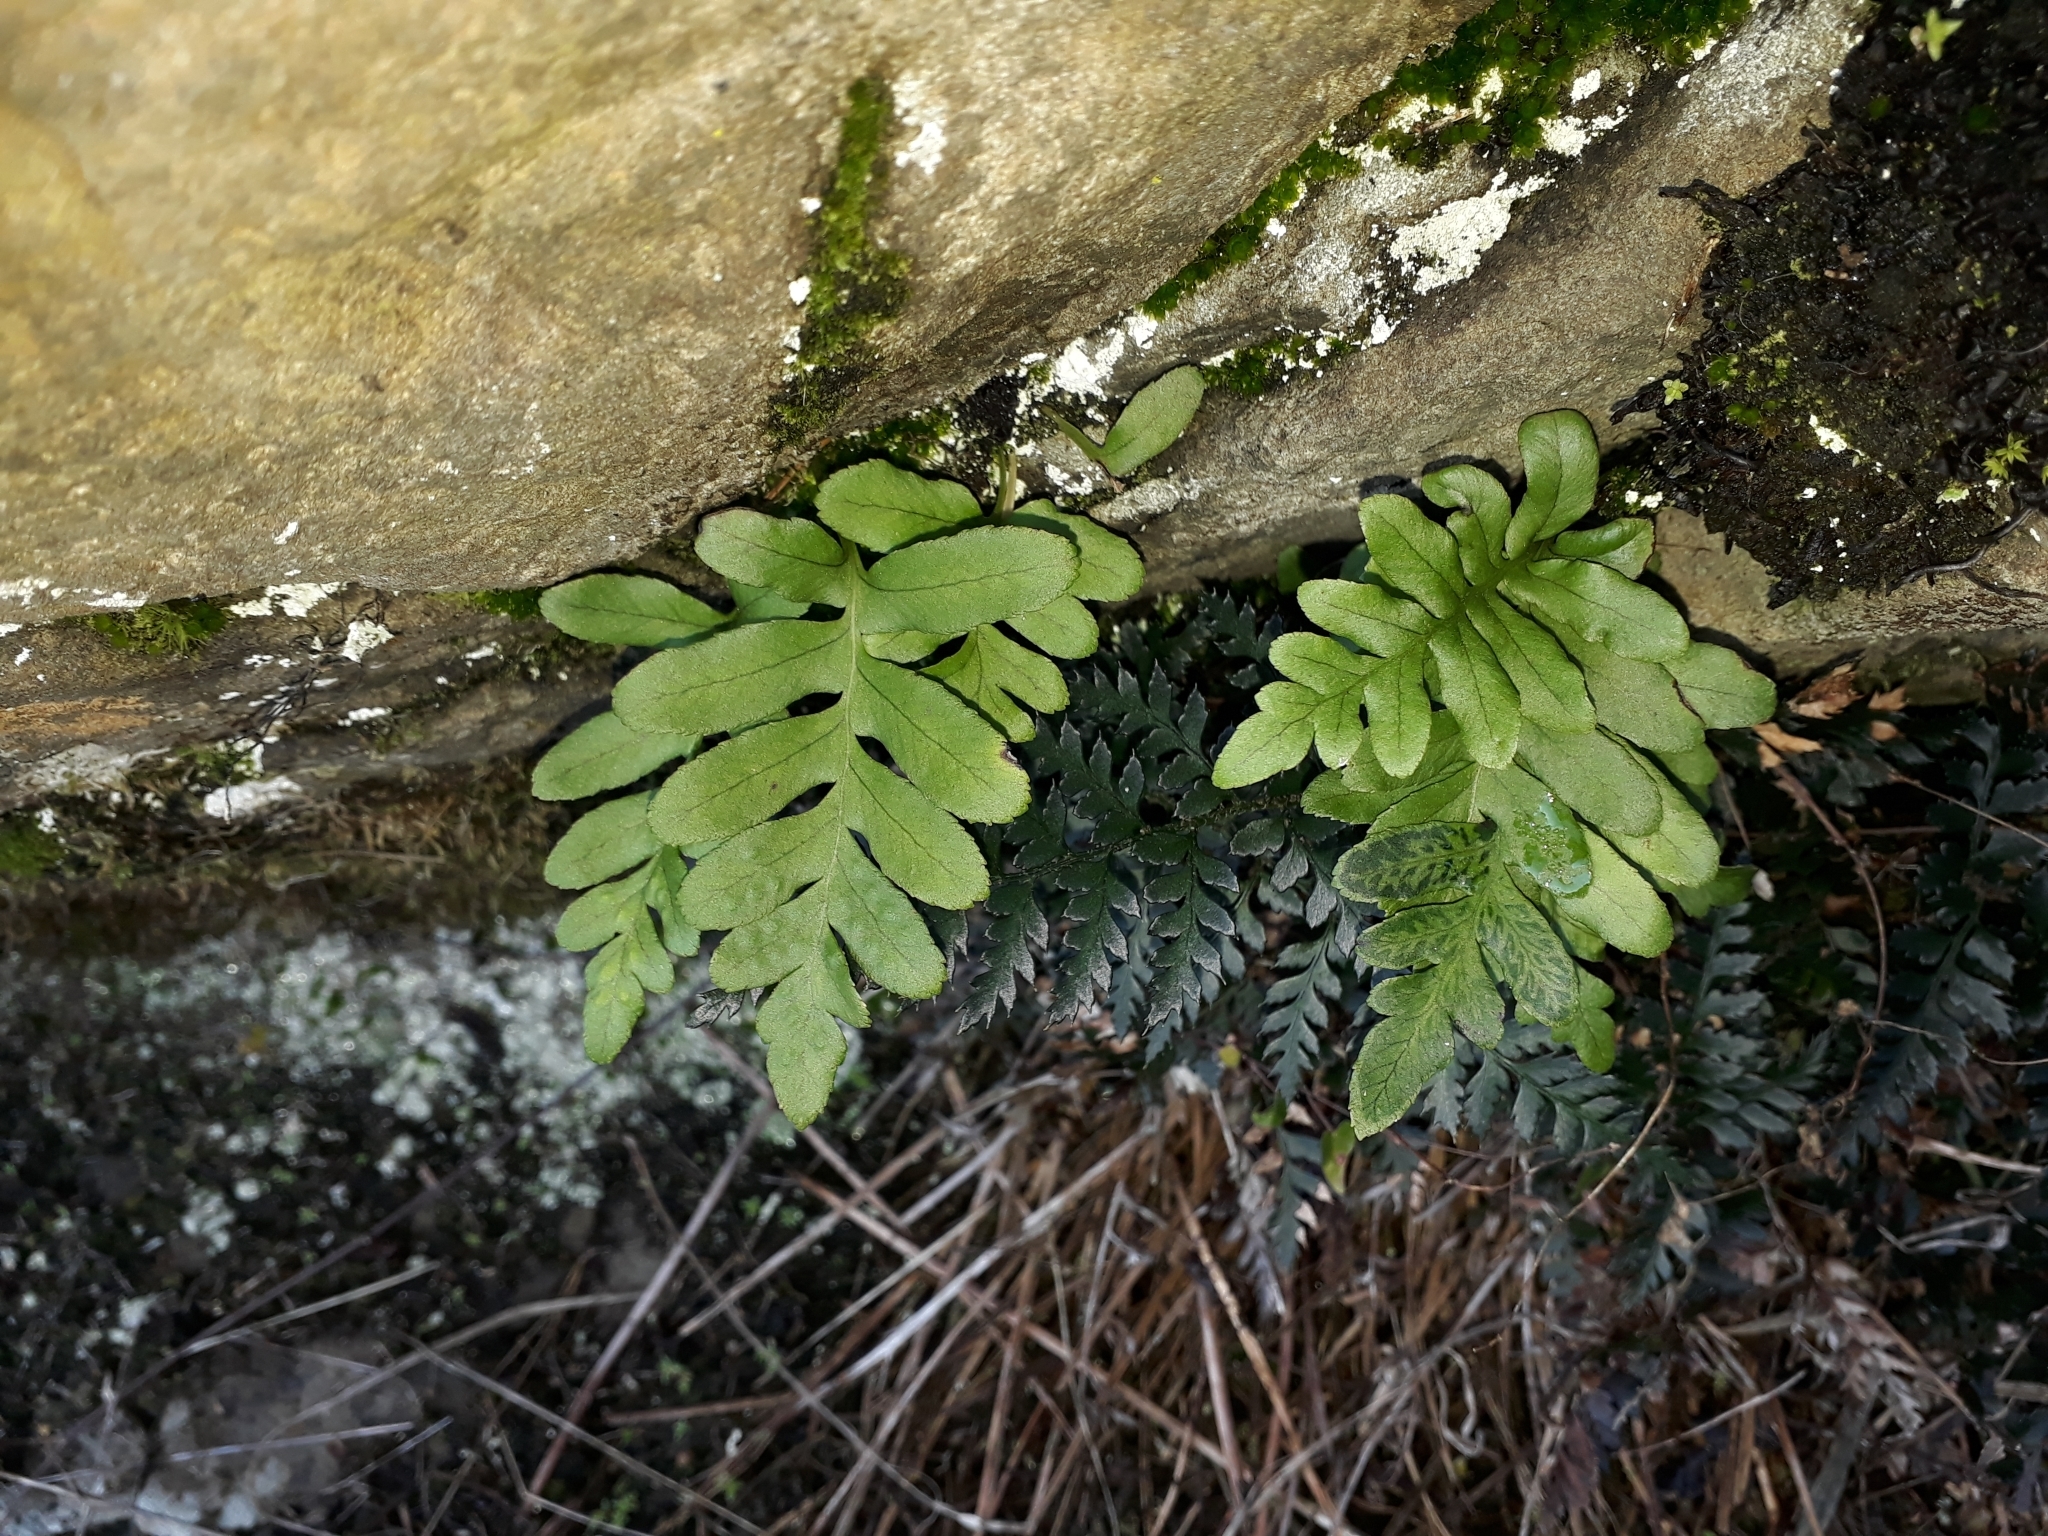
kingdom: Plantae
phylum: Tracheophyta
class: Polypodiopsida
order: Polypodiales
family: Polypodiaceae
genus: Polypodium
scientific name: Polypodium vulgare
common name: Common polypody
